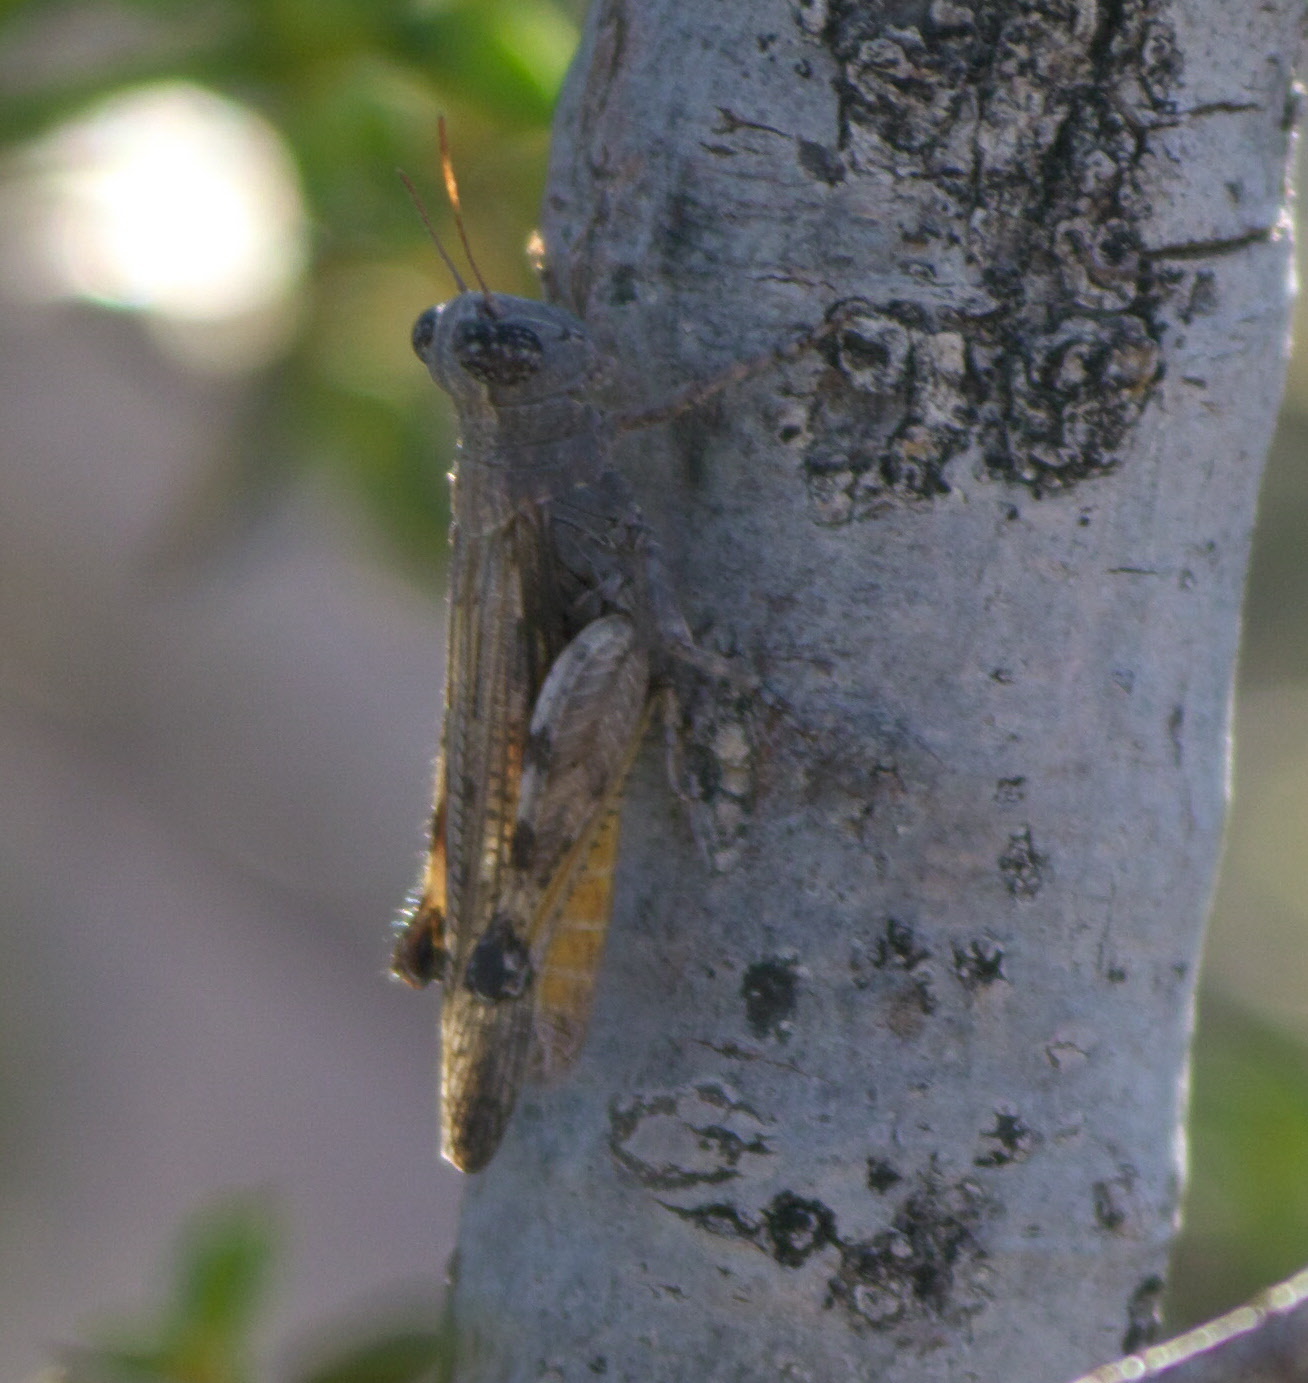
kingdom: Animalia
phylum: Arthropoda
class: Insecta
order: Orthoptera
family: Acrididae
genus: Ligurotettix
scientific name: Ligurotettix coquilletti
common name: Desert clicker grasshopper
